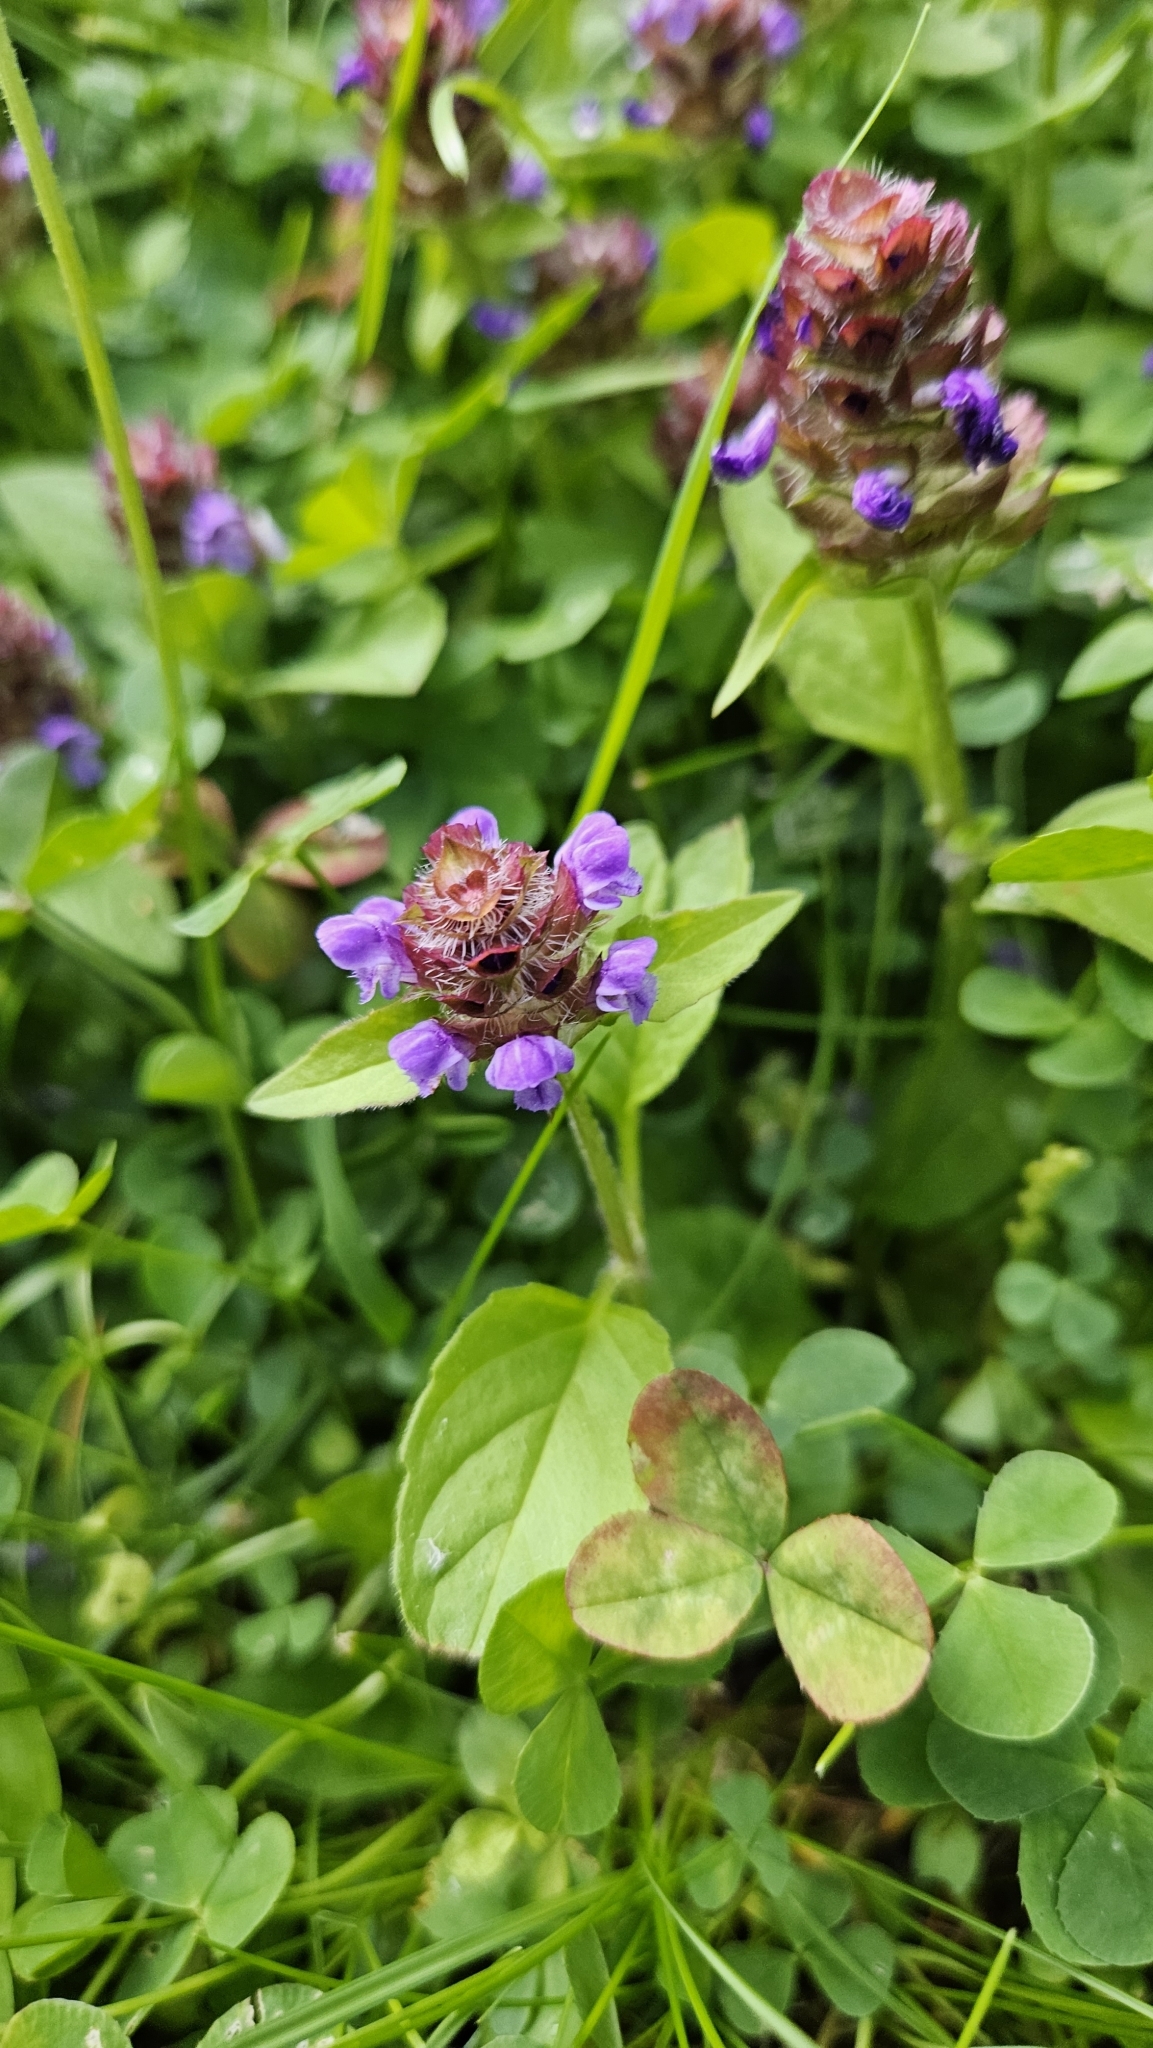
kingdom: Plantae
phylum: Tracheophyta
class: Magnoliopsida
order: Lamiales
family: Lamiaceae
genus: Prunella
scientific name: Prunella vulgaris
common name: Heal-all
